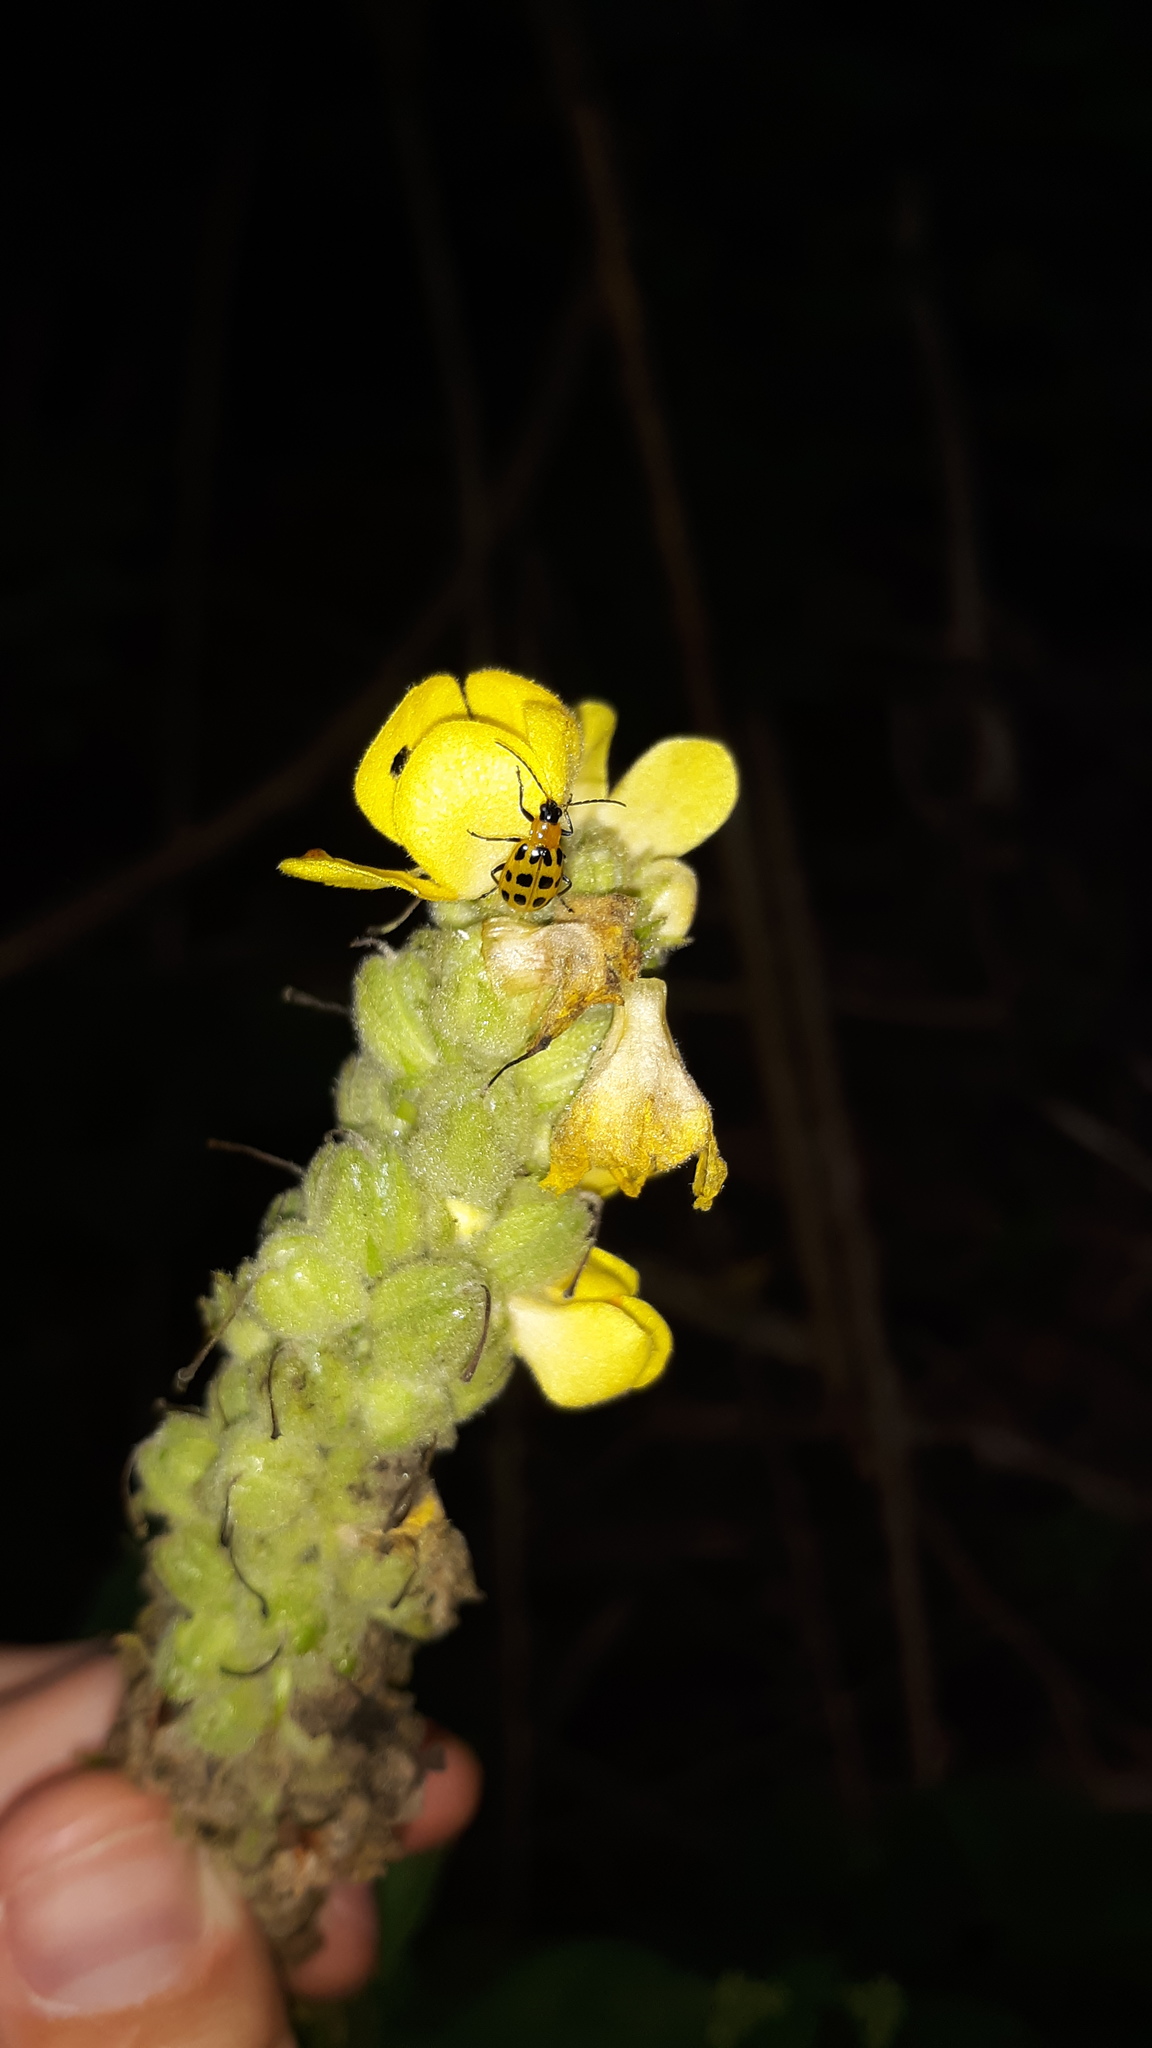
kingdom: Animalia
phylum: Arthropoda
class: Insecta
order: Coleoptera
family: Chrysomelidae
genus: Diabrotica
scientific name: Diabrotica undecimpunctata
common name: Spotted cucumber beetle
